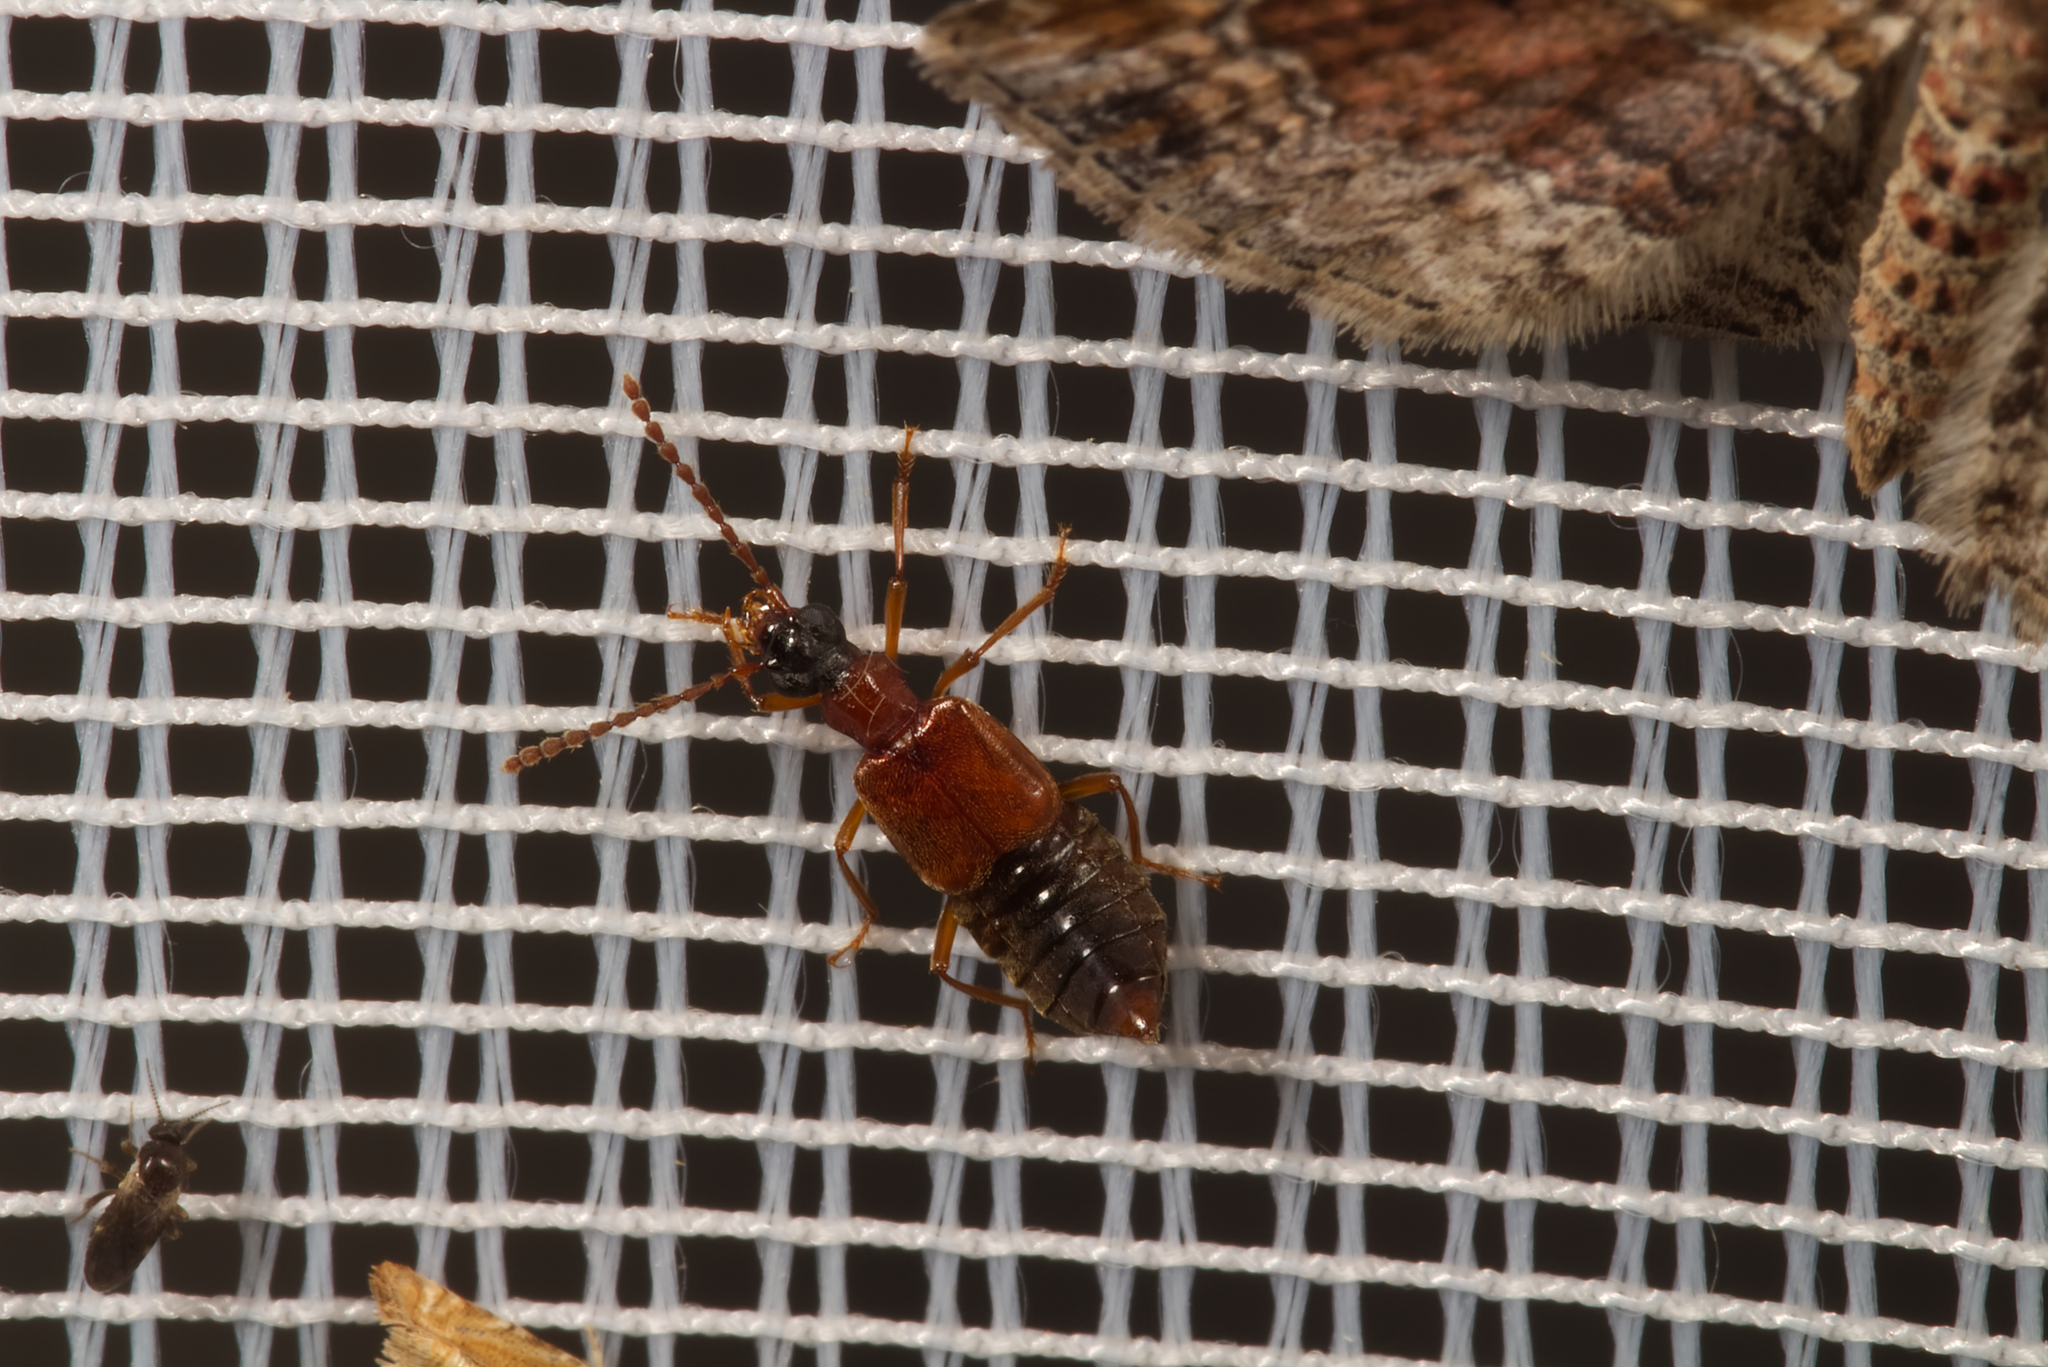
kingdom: Animalia
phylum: Arthropoda
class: Insecta
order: Coleoptera
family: Staphylinidae
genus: Deleaster
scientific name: Deleaster dichrous
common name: Rove beetle
